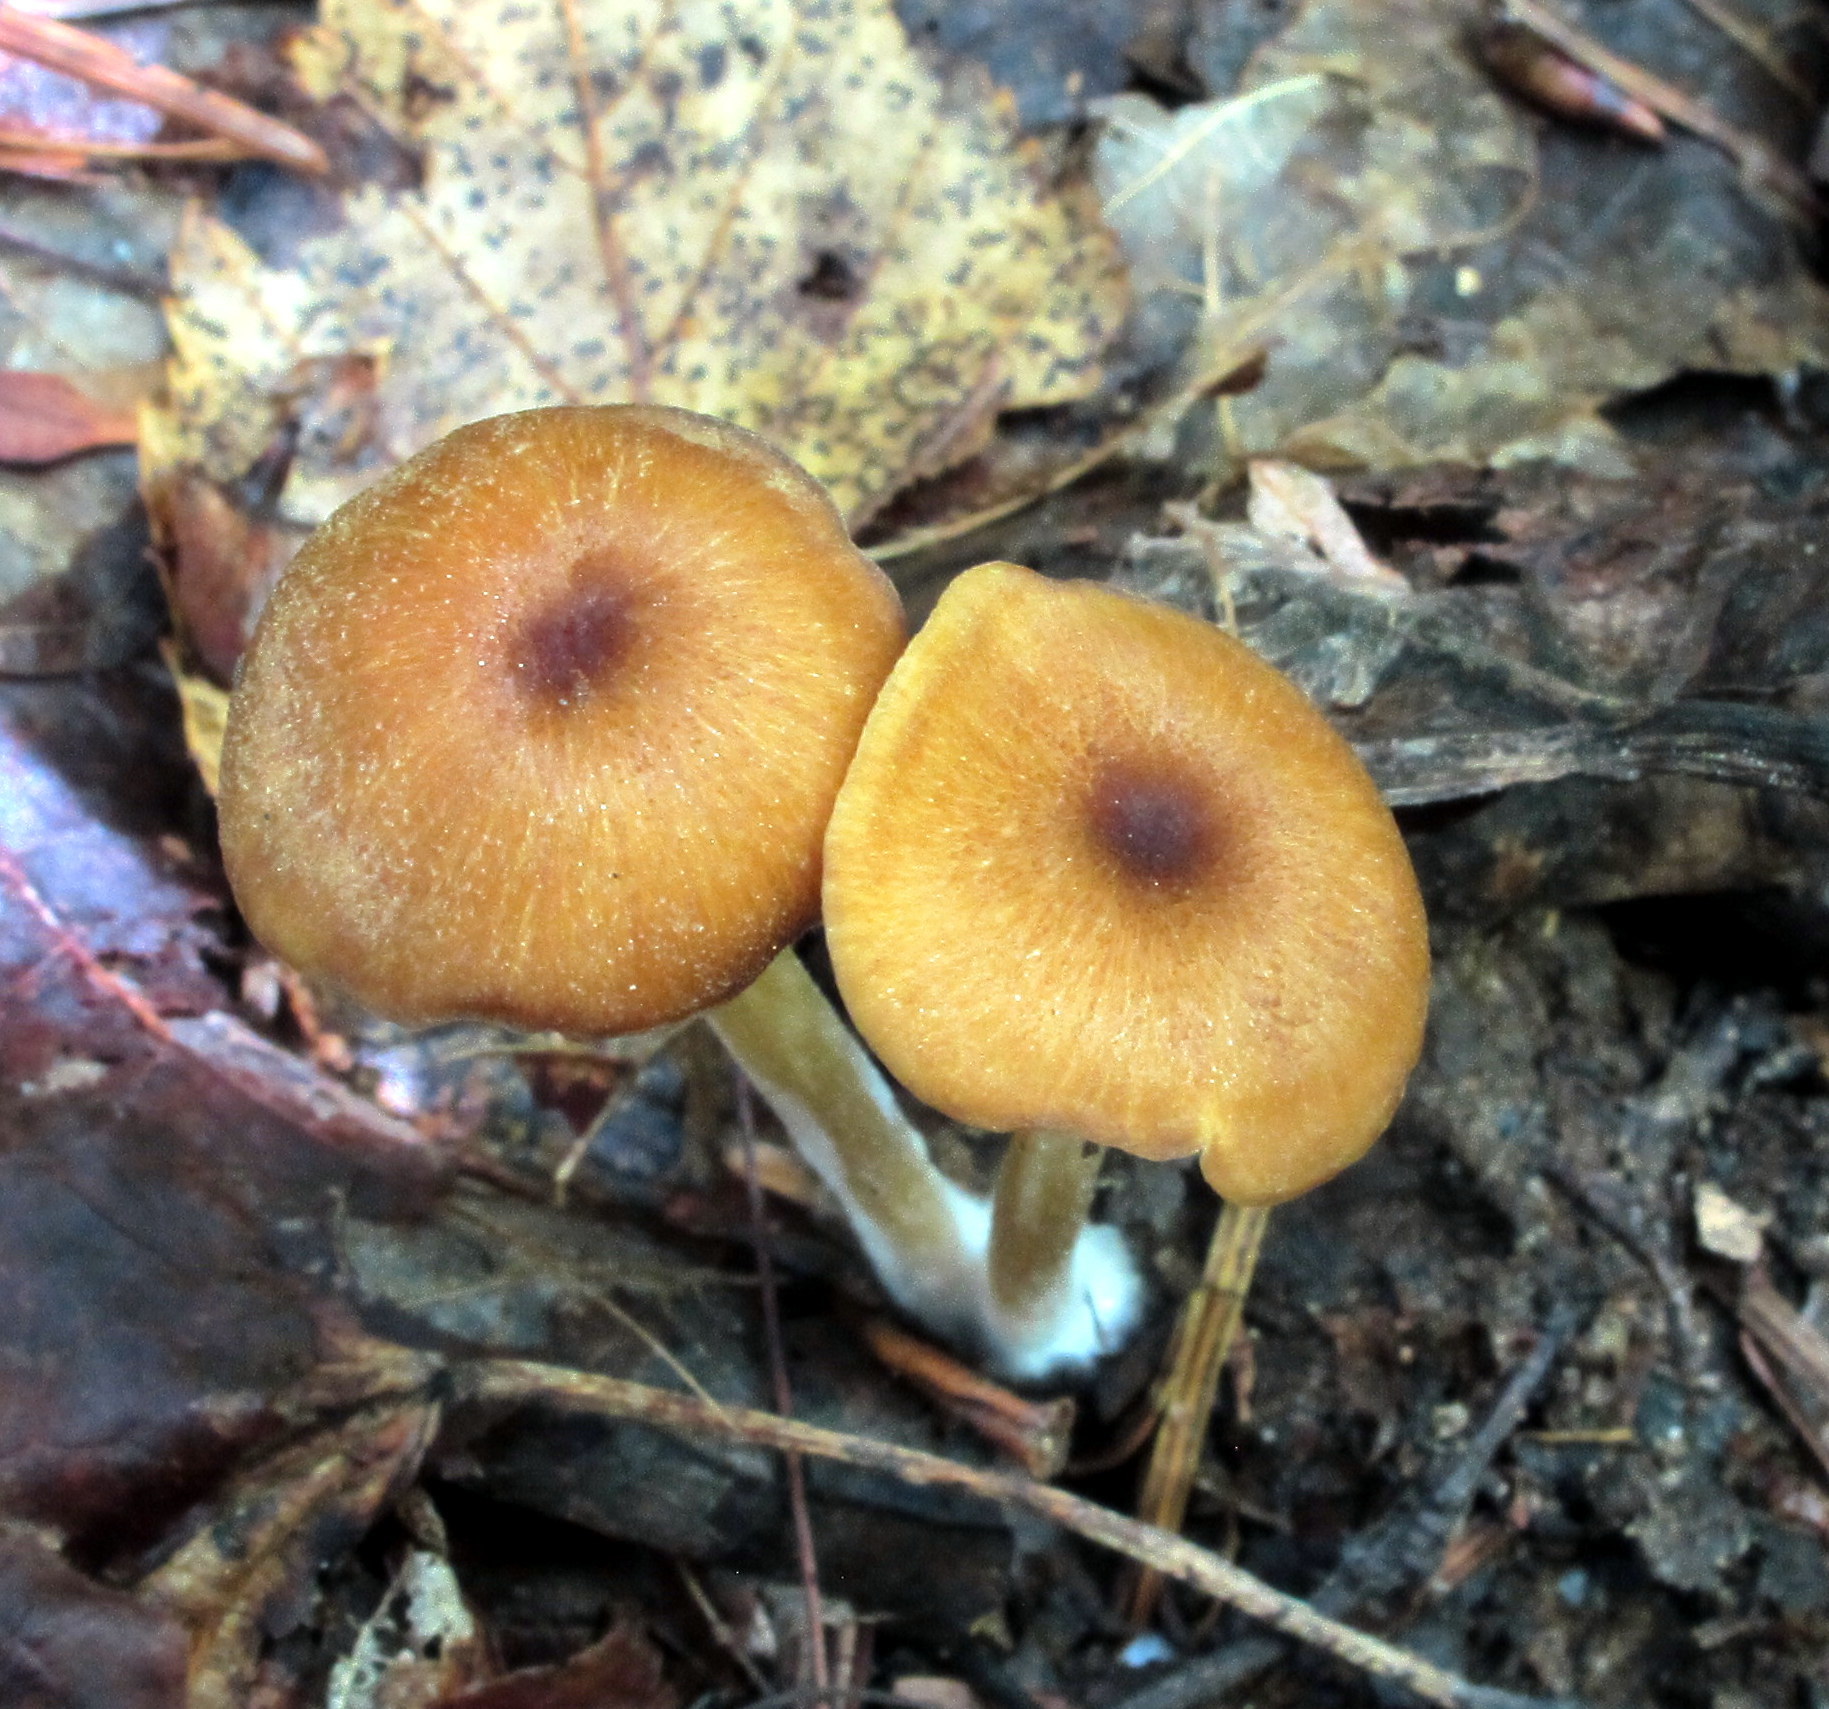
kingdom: Fungi
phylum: Basidiomycota
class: Agaricomycetes
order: Agaricales
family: Entolomataceae
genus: Entoloma
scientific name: Entoloma formosum
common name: Pretty pinkgill
